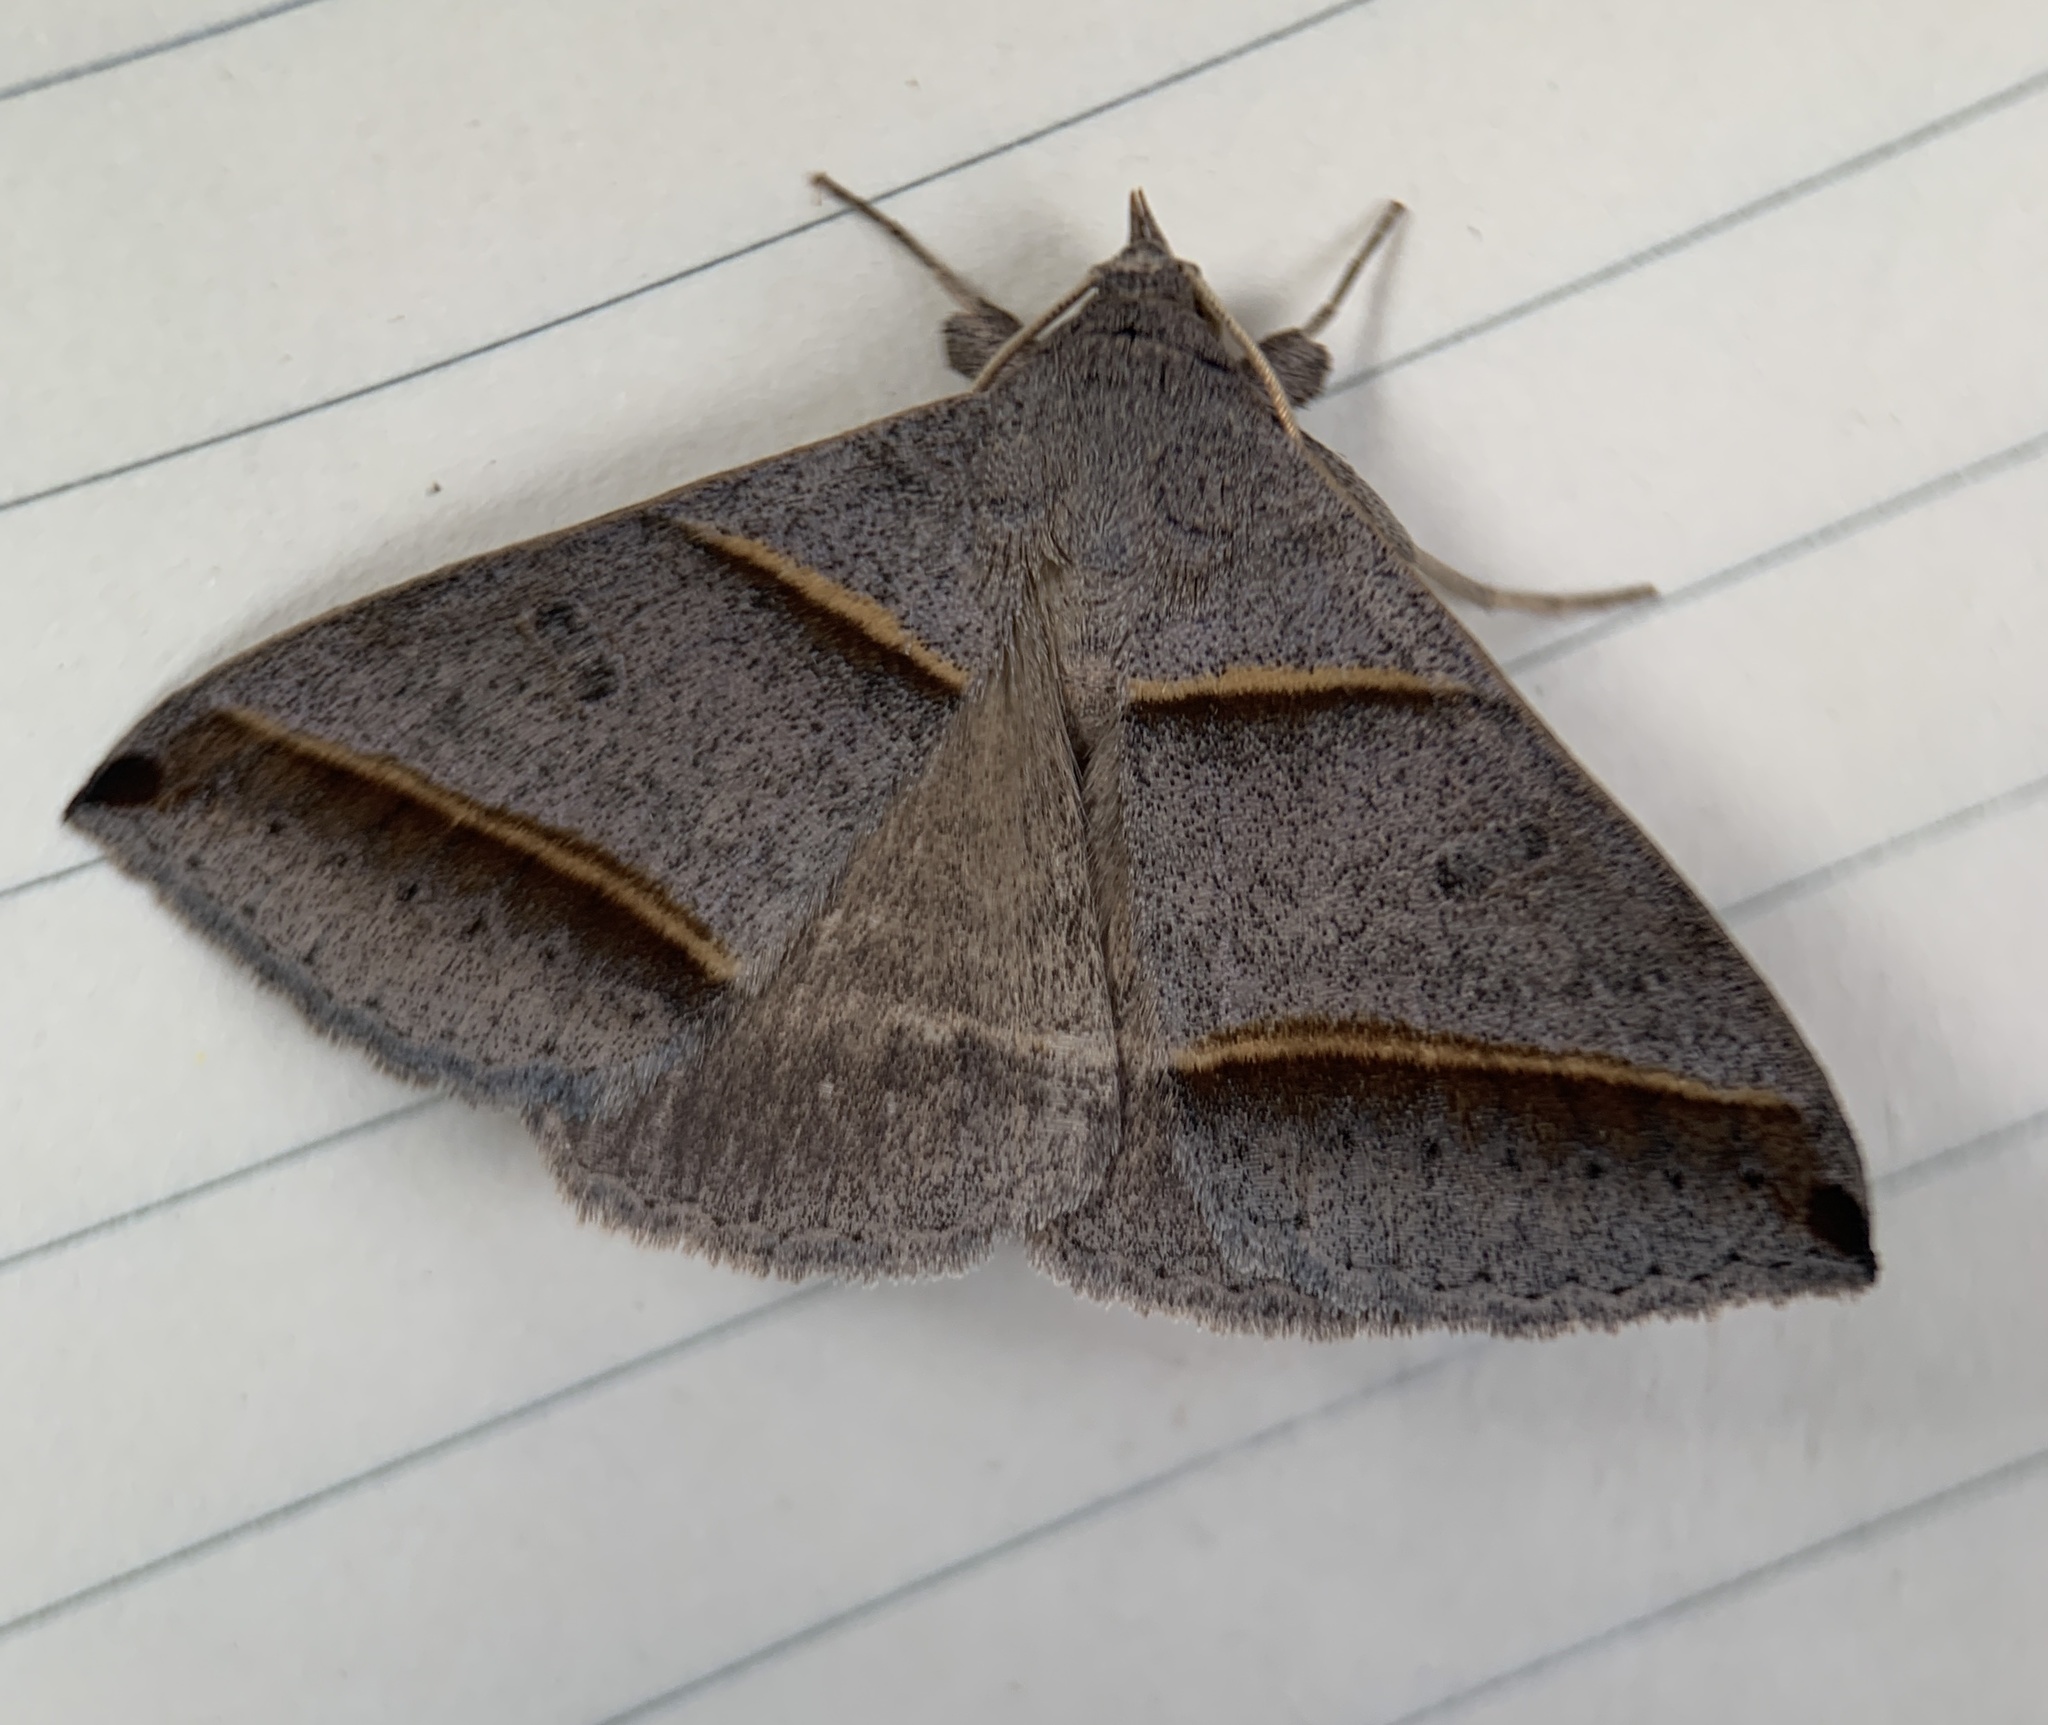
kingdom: Animalia
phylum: Arthropoda
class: Insecta
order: Lepidoptera
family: Erebidae
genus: Ptichodis
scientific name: Ptichodis vinculum
